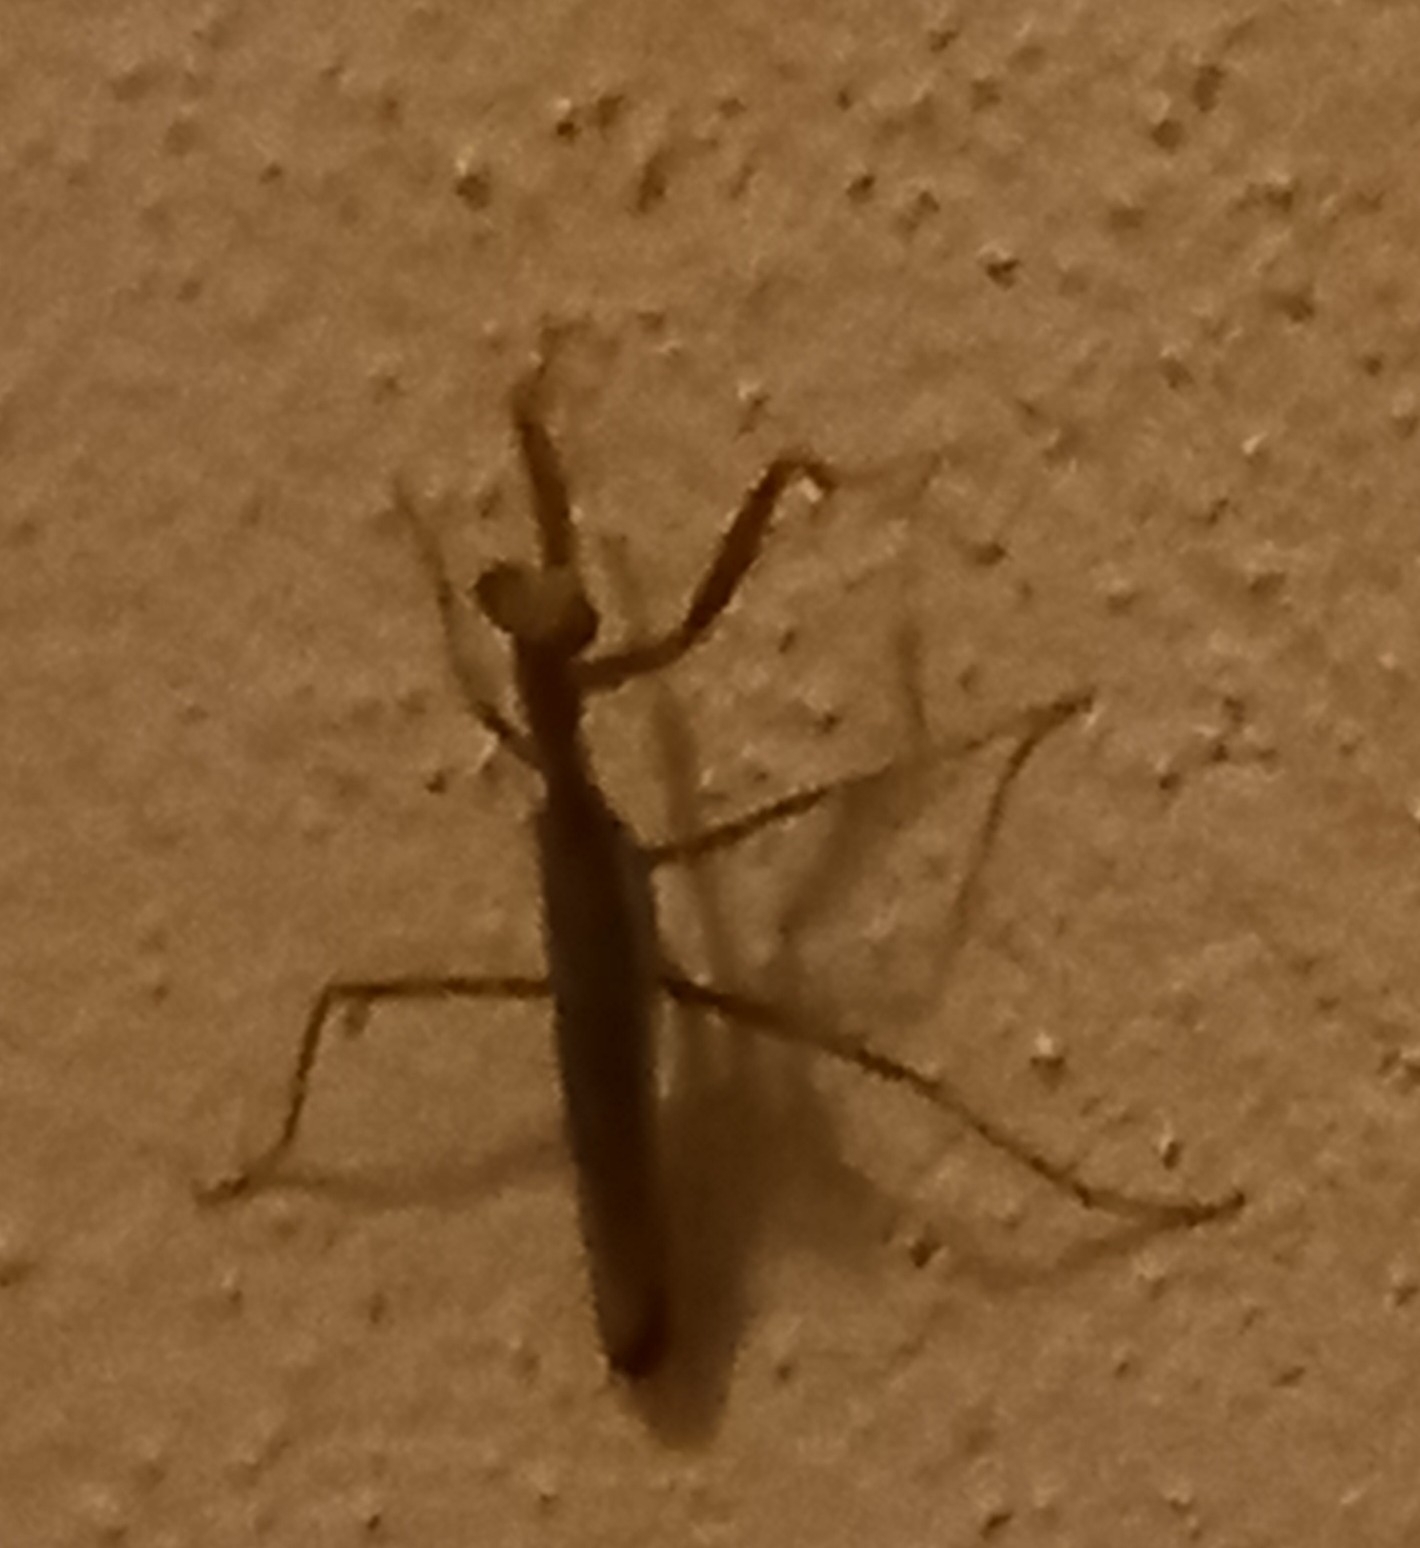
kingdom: Animalia
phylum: Arthropoda
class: Insecta
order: Mantodea
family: Eremiaphilidae
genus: Iris
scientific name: Iris oratoria
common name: Mediterranean mantis
